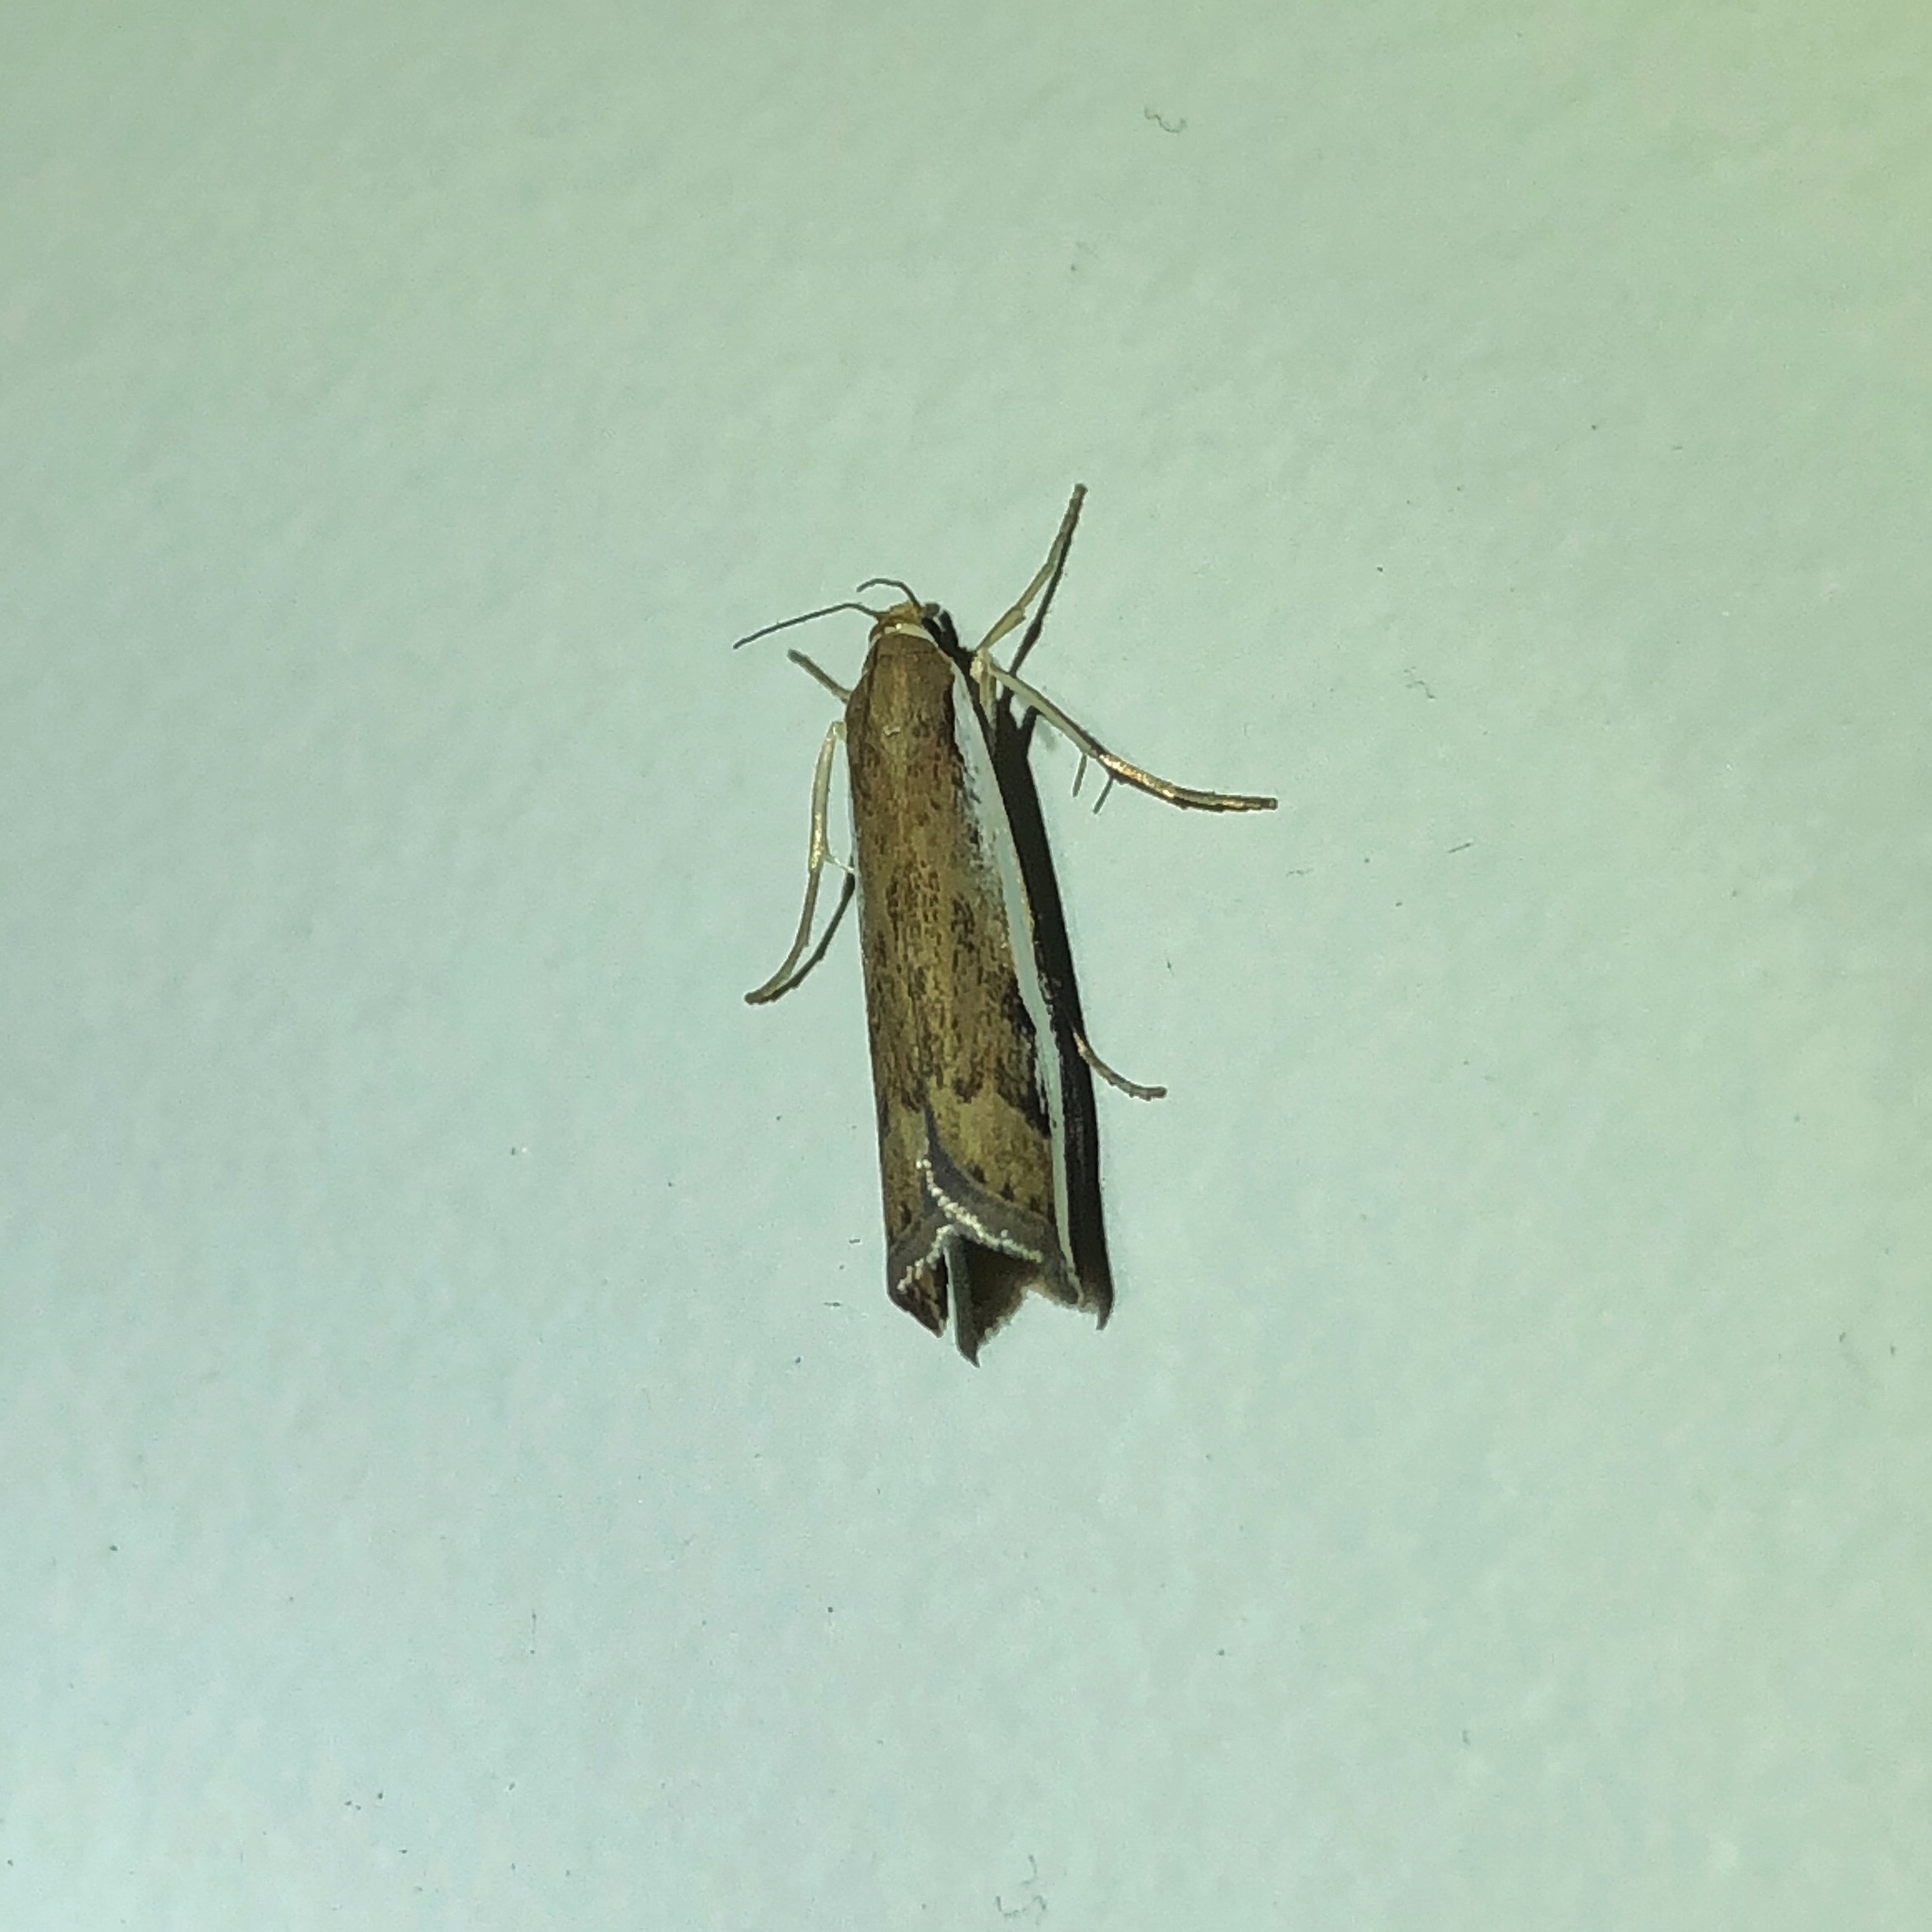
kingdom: Animalia
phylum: Arthropoda
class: Insecta
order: Lepidoptera
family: Crambidae
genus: Orocrambus
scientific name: Orocrambus flexuosellus
